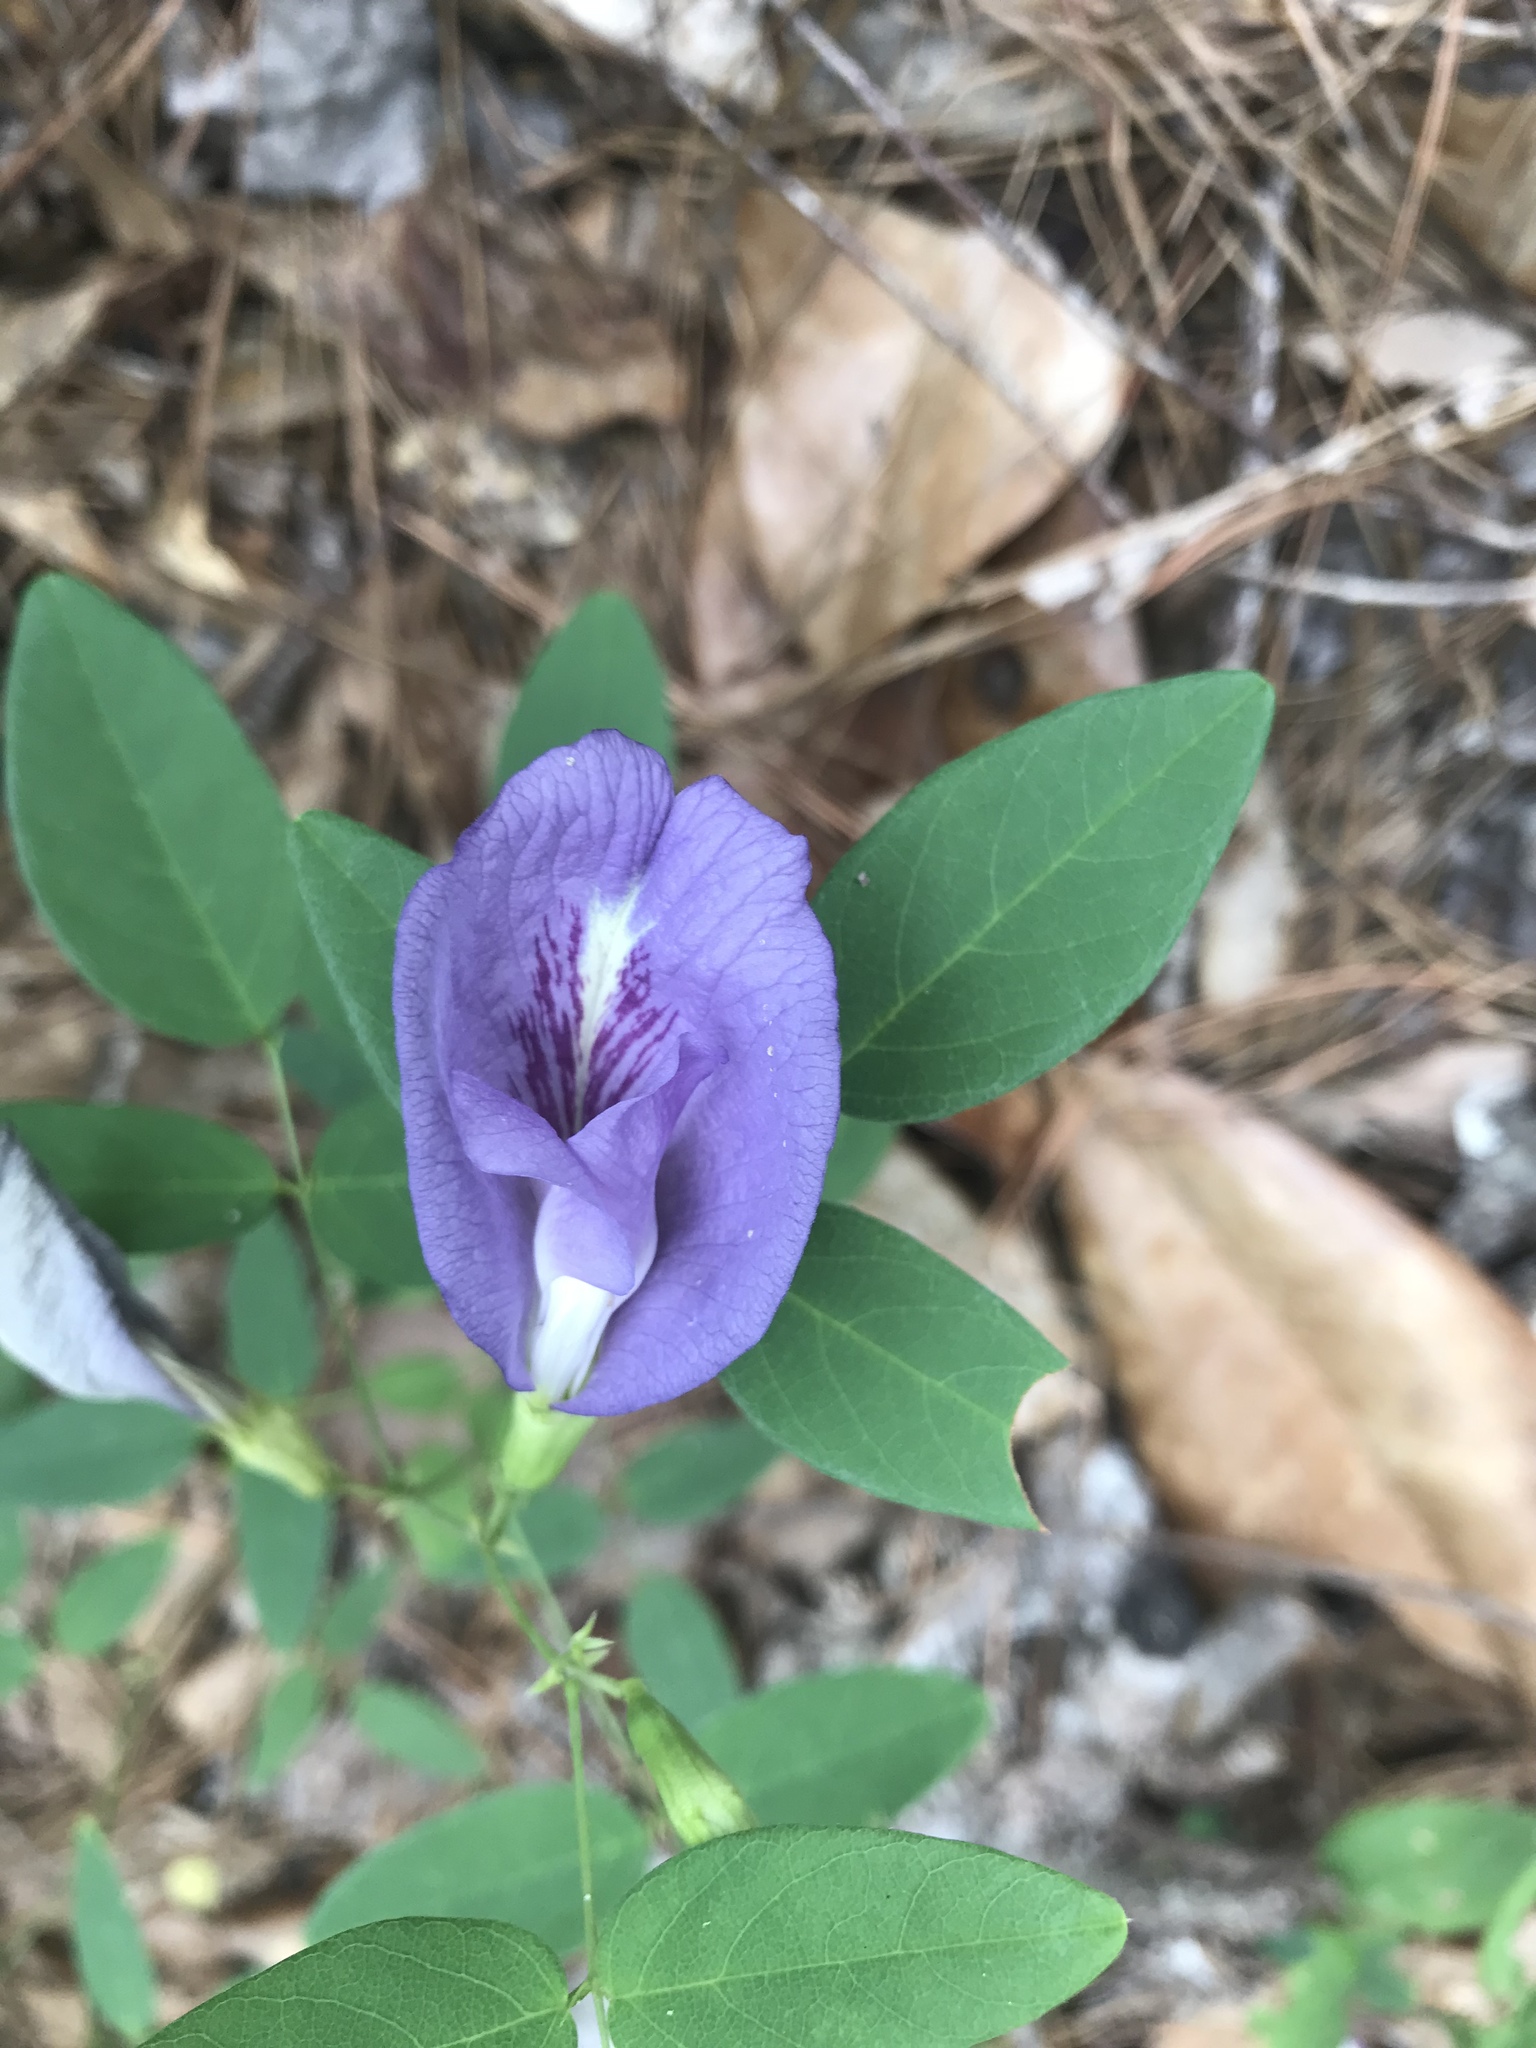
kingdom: Plantae
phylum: Tracheophyta
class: Magnoliopsida
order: Fabales
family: Fabaceae
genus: Clitoria
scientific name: Clitoria mariana
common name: Butterfly-pea
